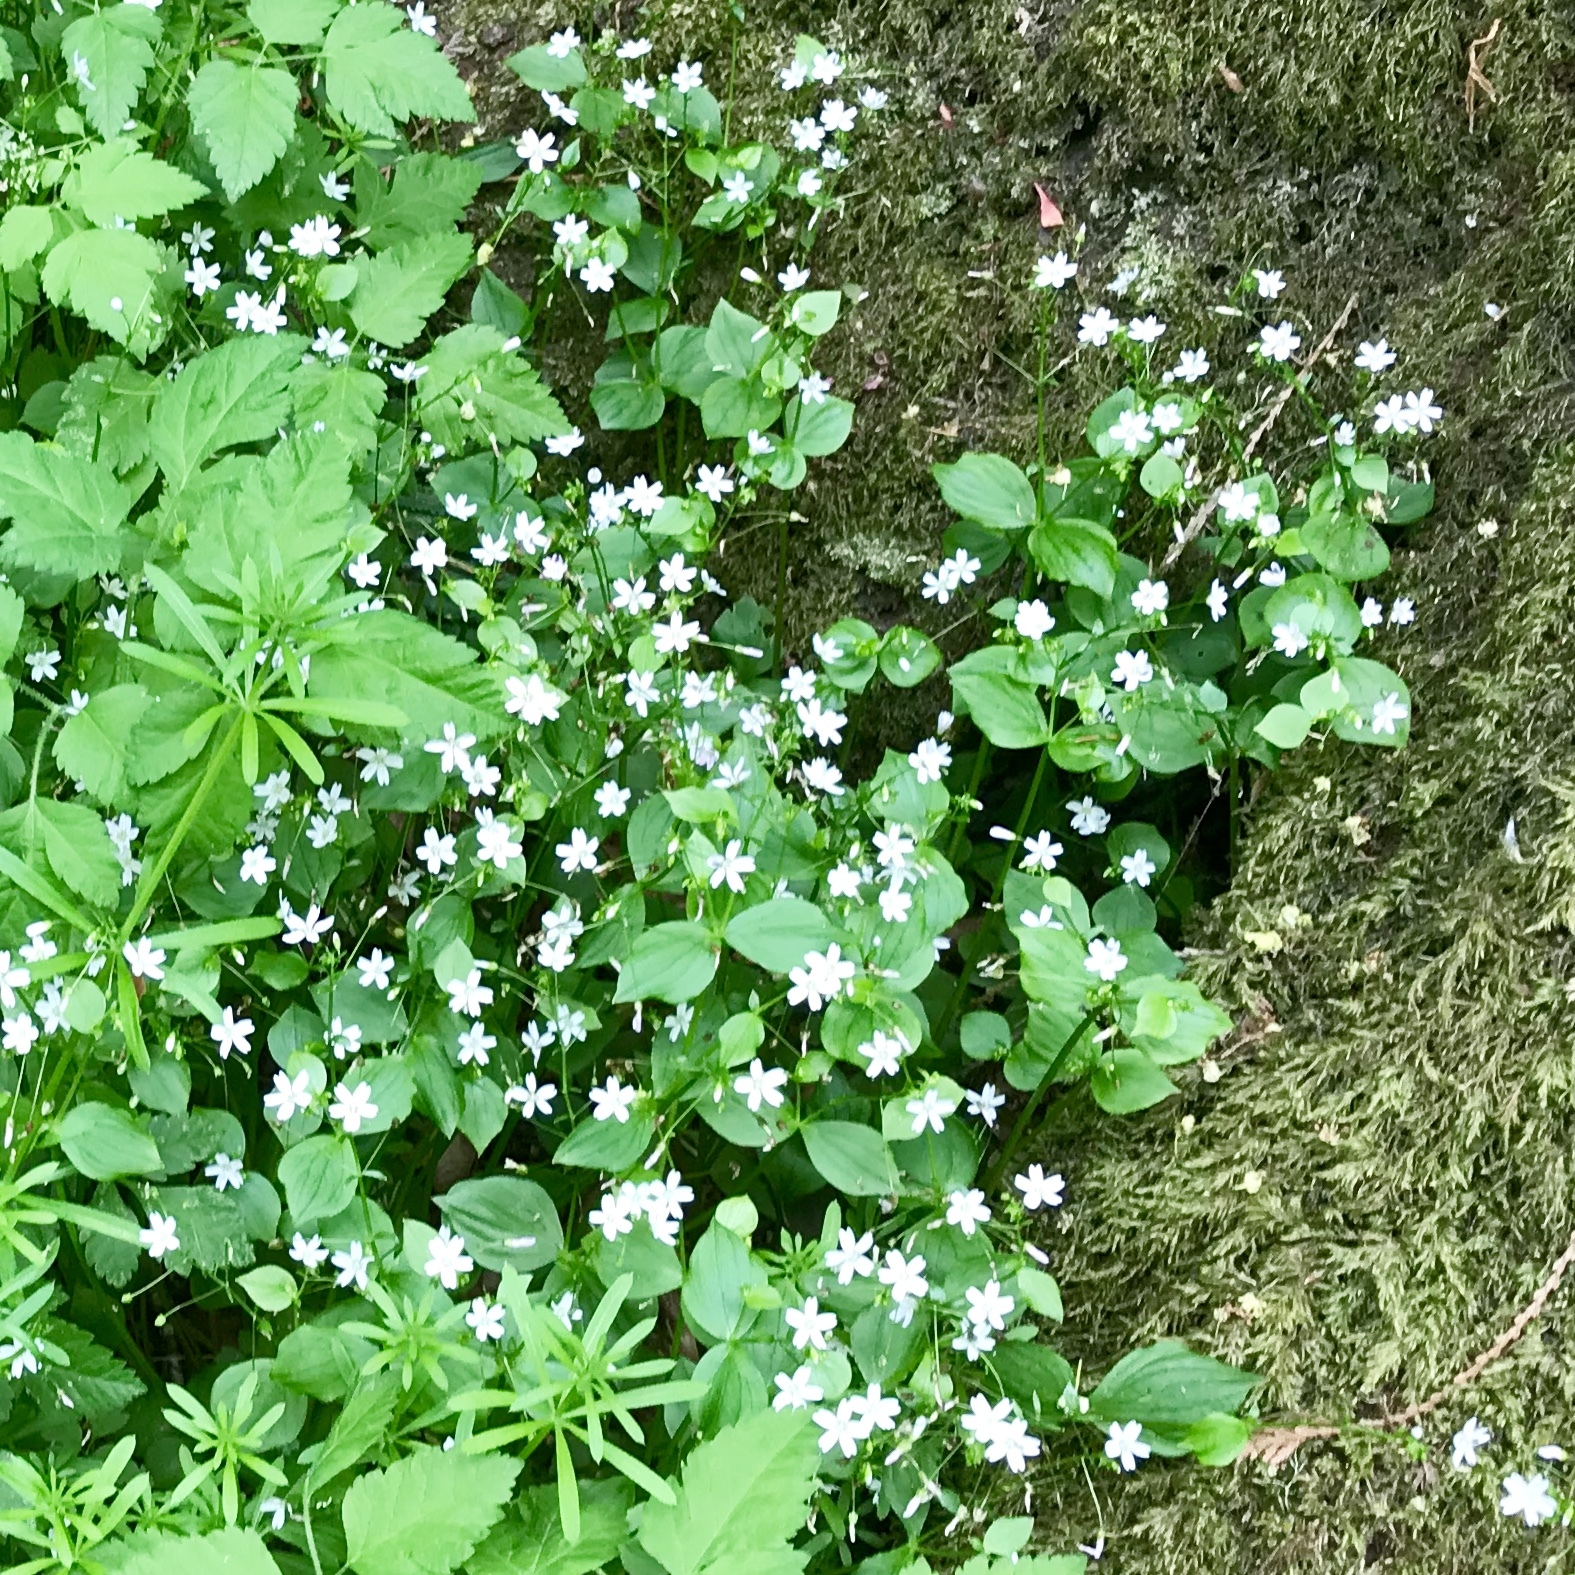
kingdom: Plantae
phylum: Tracheophyta
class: Magnoliopsida
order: Caryophyllales
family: Montiaceae
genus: Claytonia
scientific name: Claytonia sibirica
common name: Pink purslane
